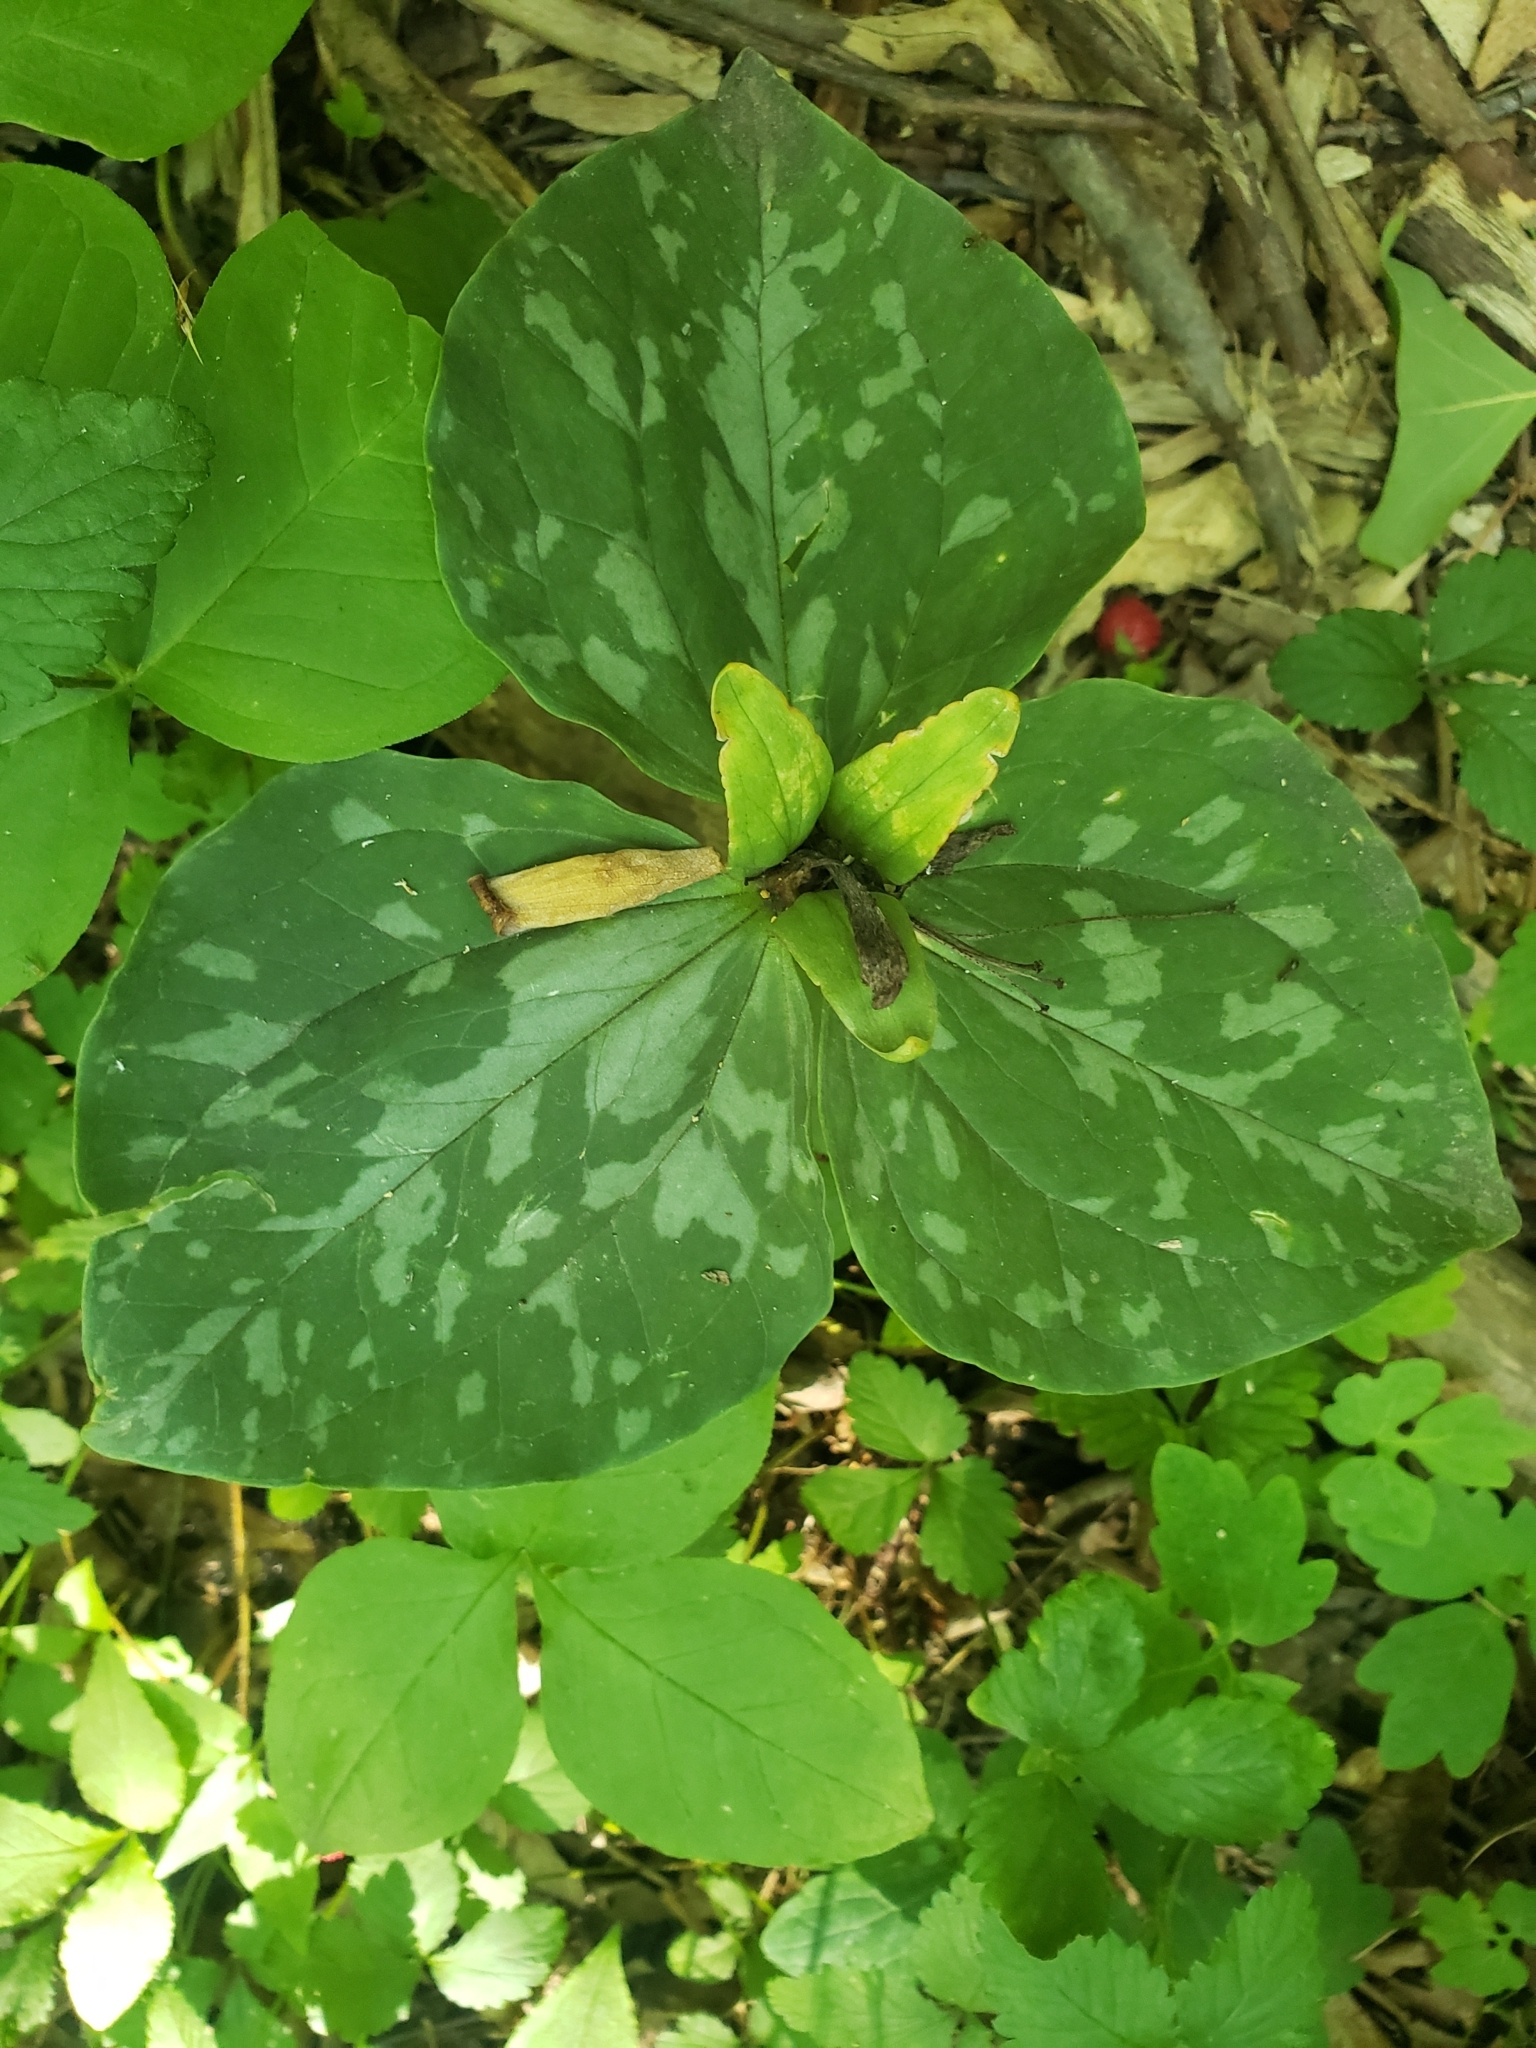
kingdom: Plantae
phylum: Tracheophyta
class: Liliopsida
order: Liliales
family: Melanthiaceae
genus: Trillium
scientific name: Trillium cuneatum
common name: Cuneate trillium
